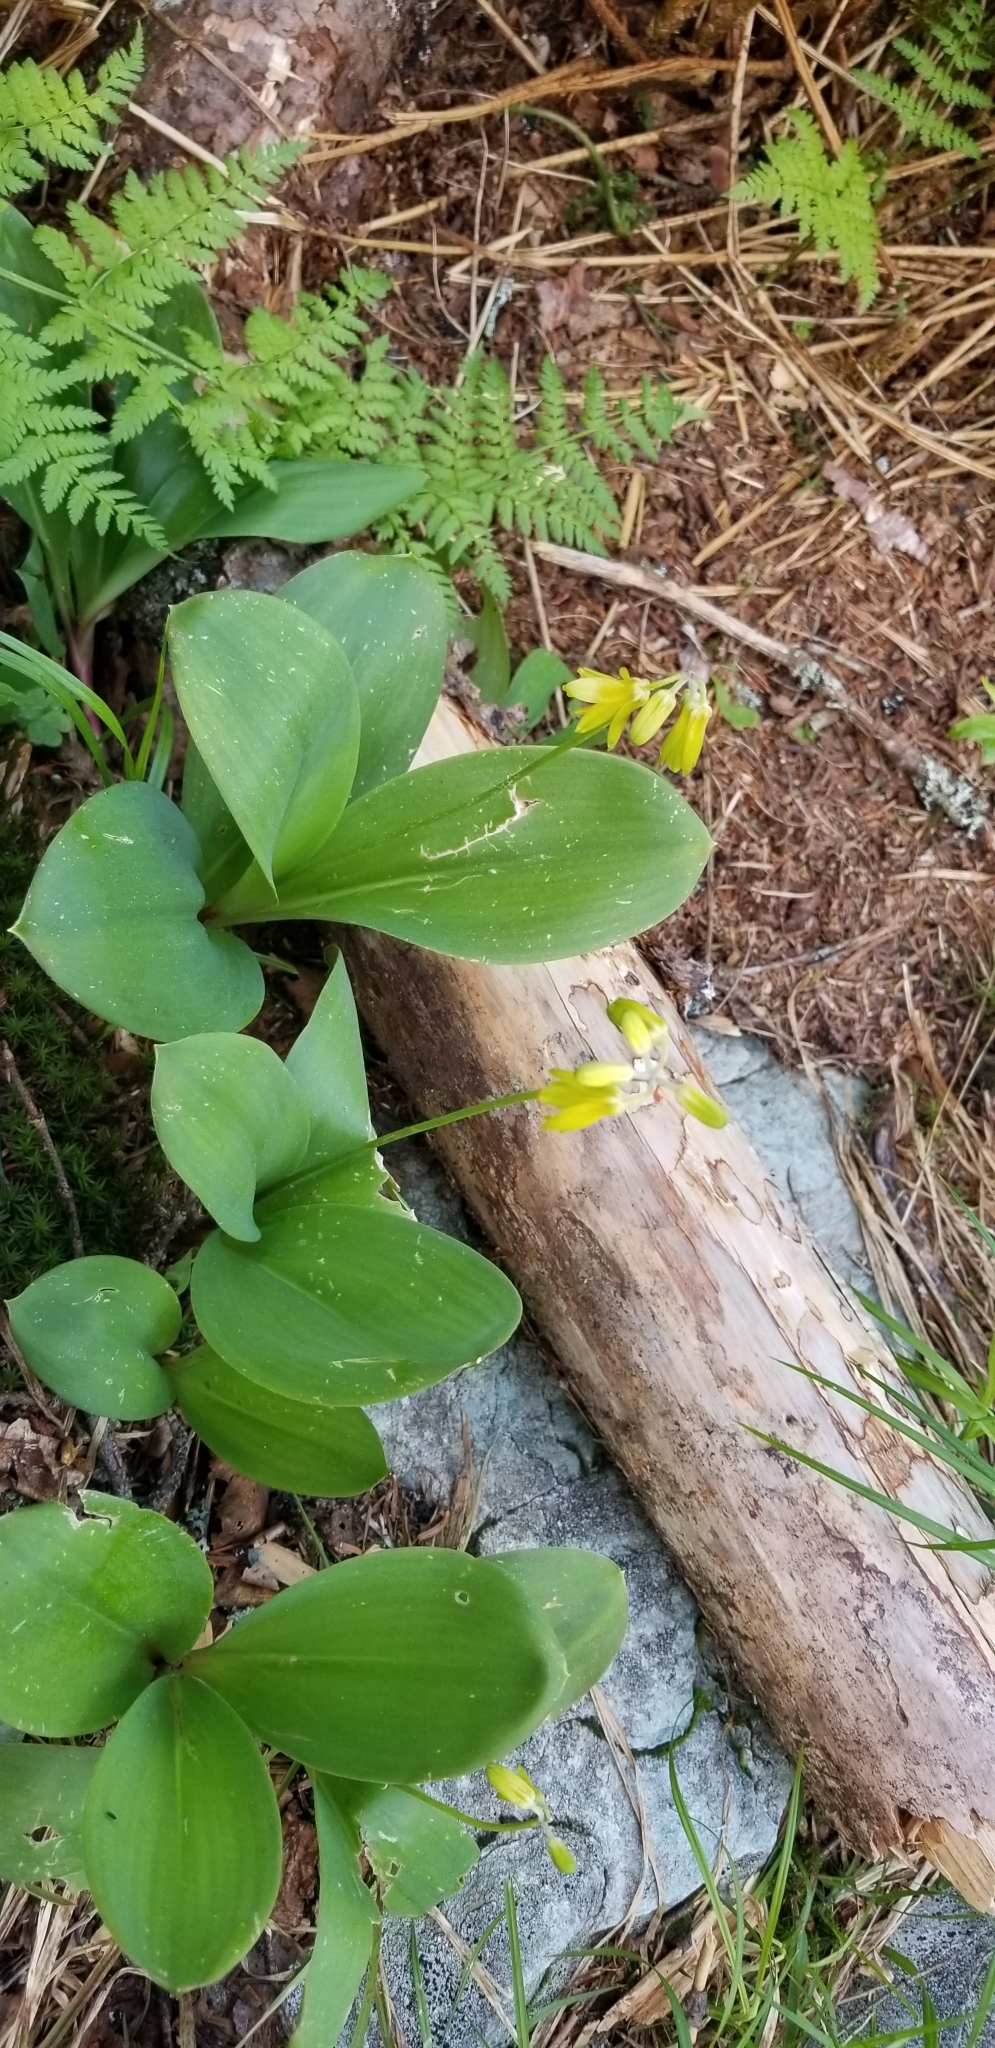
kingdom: Plantae
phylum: Tracheophyta
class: Liliopsida
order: Liliales
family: Liliaceae
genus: Clintonia
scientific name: Clintonia borealis
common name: Yellow clintonia
